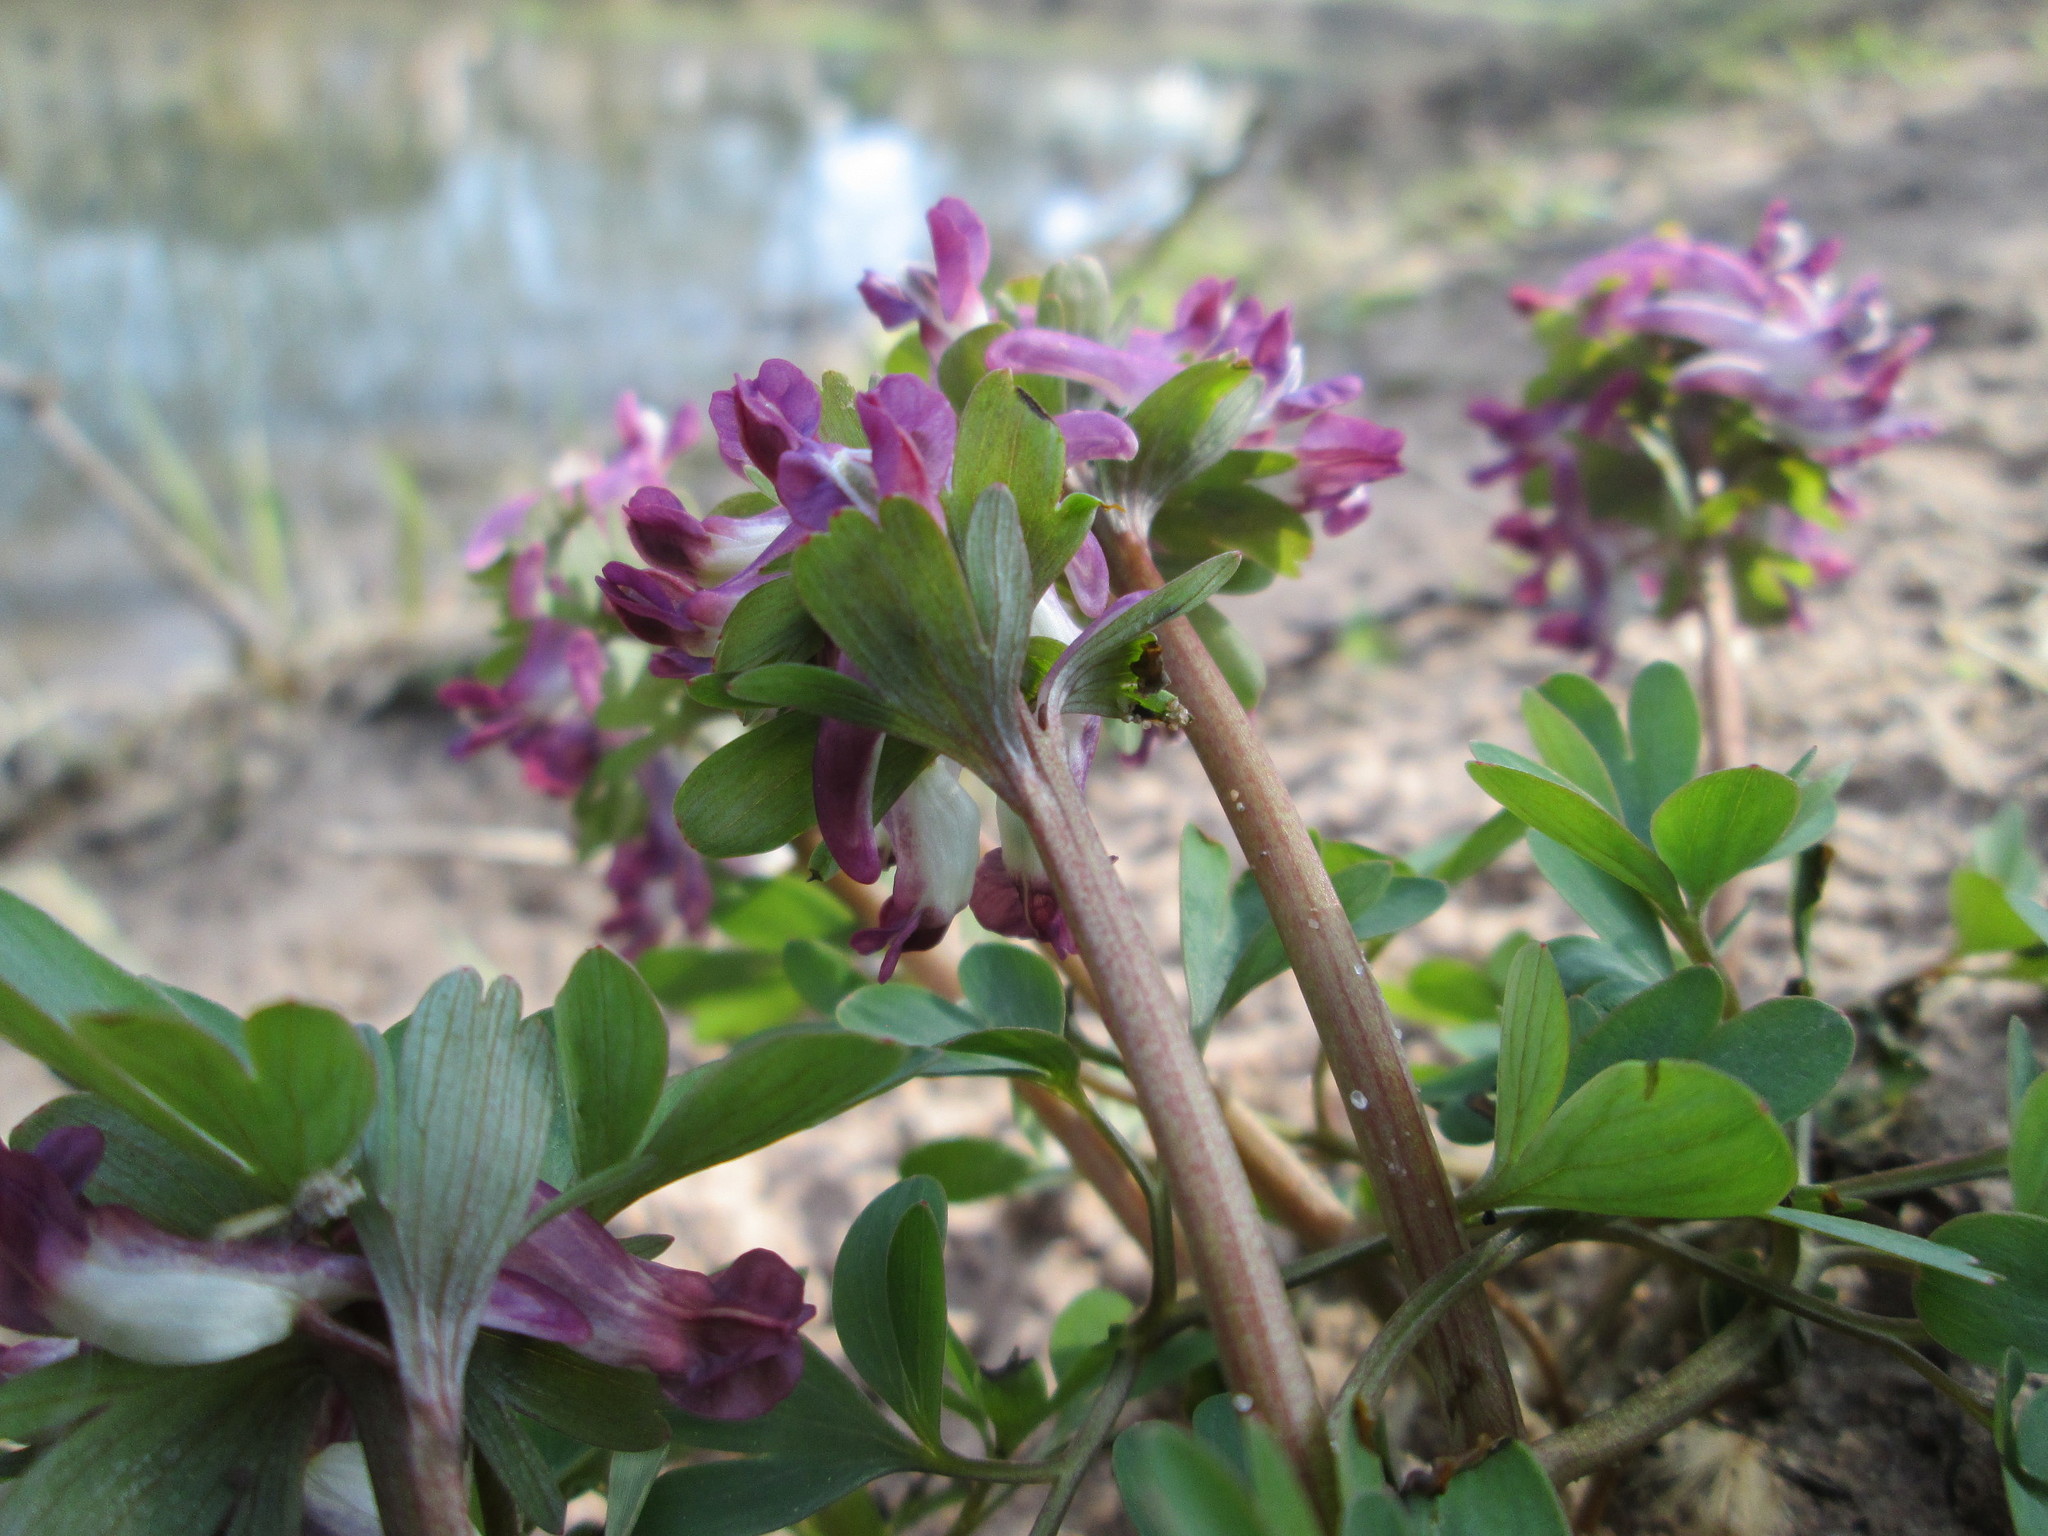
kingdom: Plantae
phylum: Tracheophyta
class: Magnoliopsida
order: Ranunculales
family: Papaveraceae
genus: Corydalis
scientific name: Corydalis cava
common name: Hollowroot
